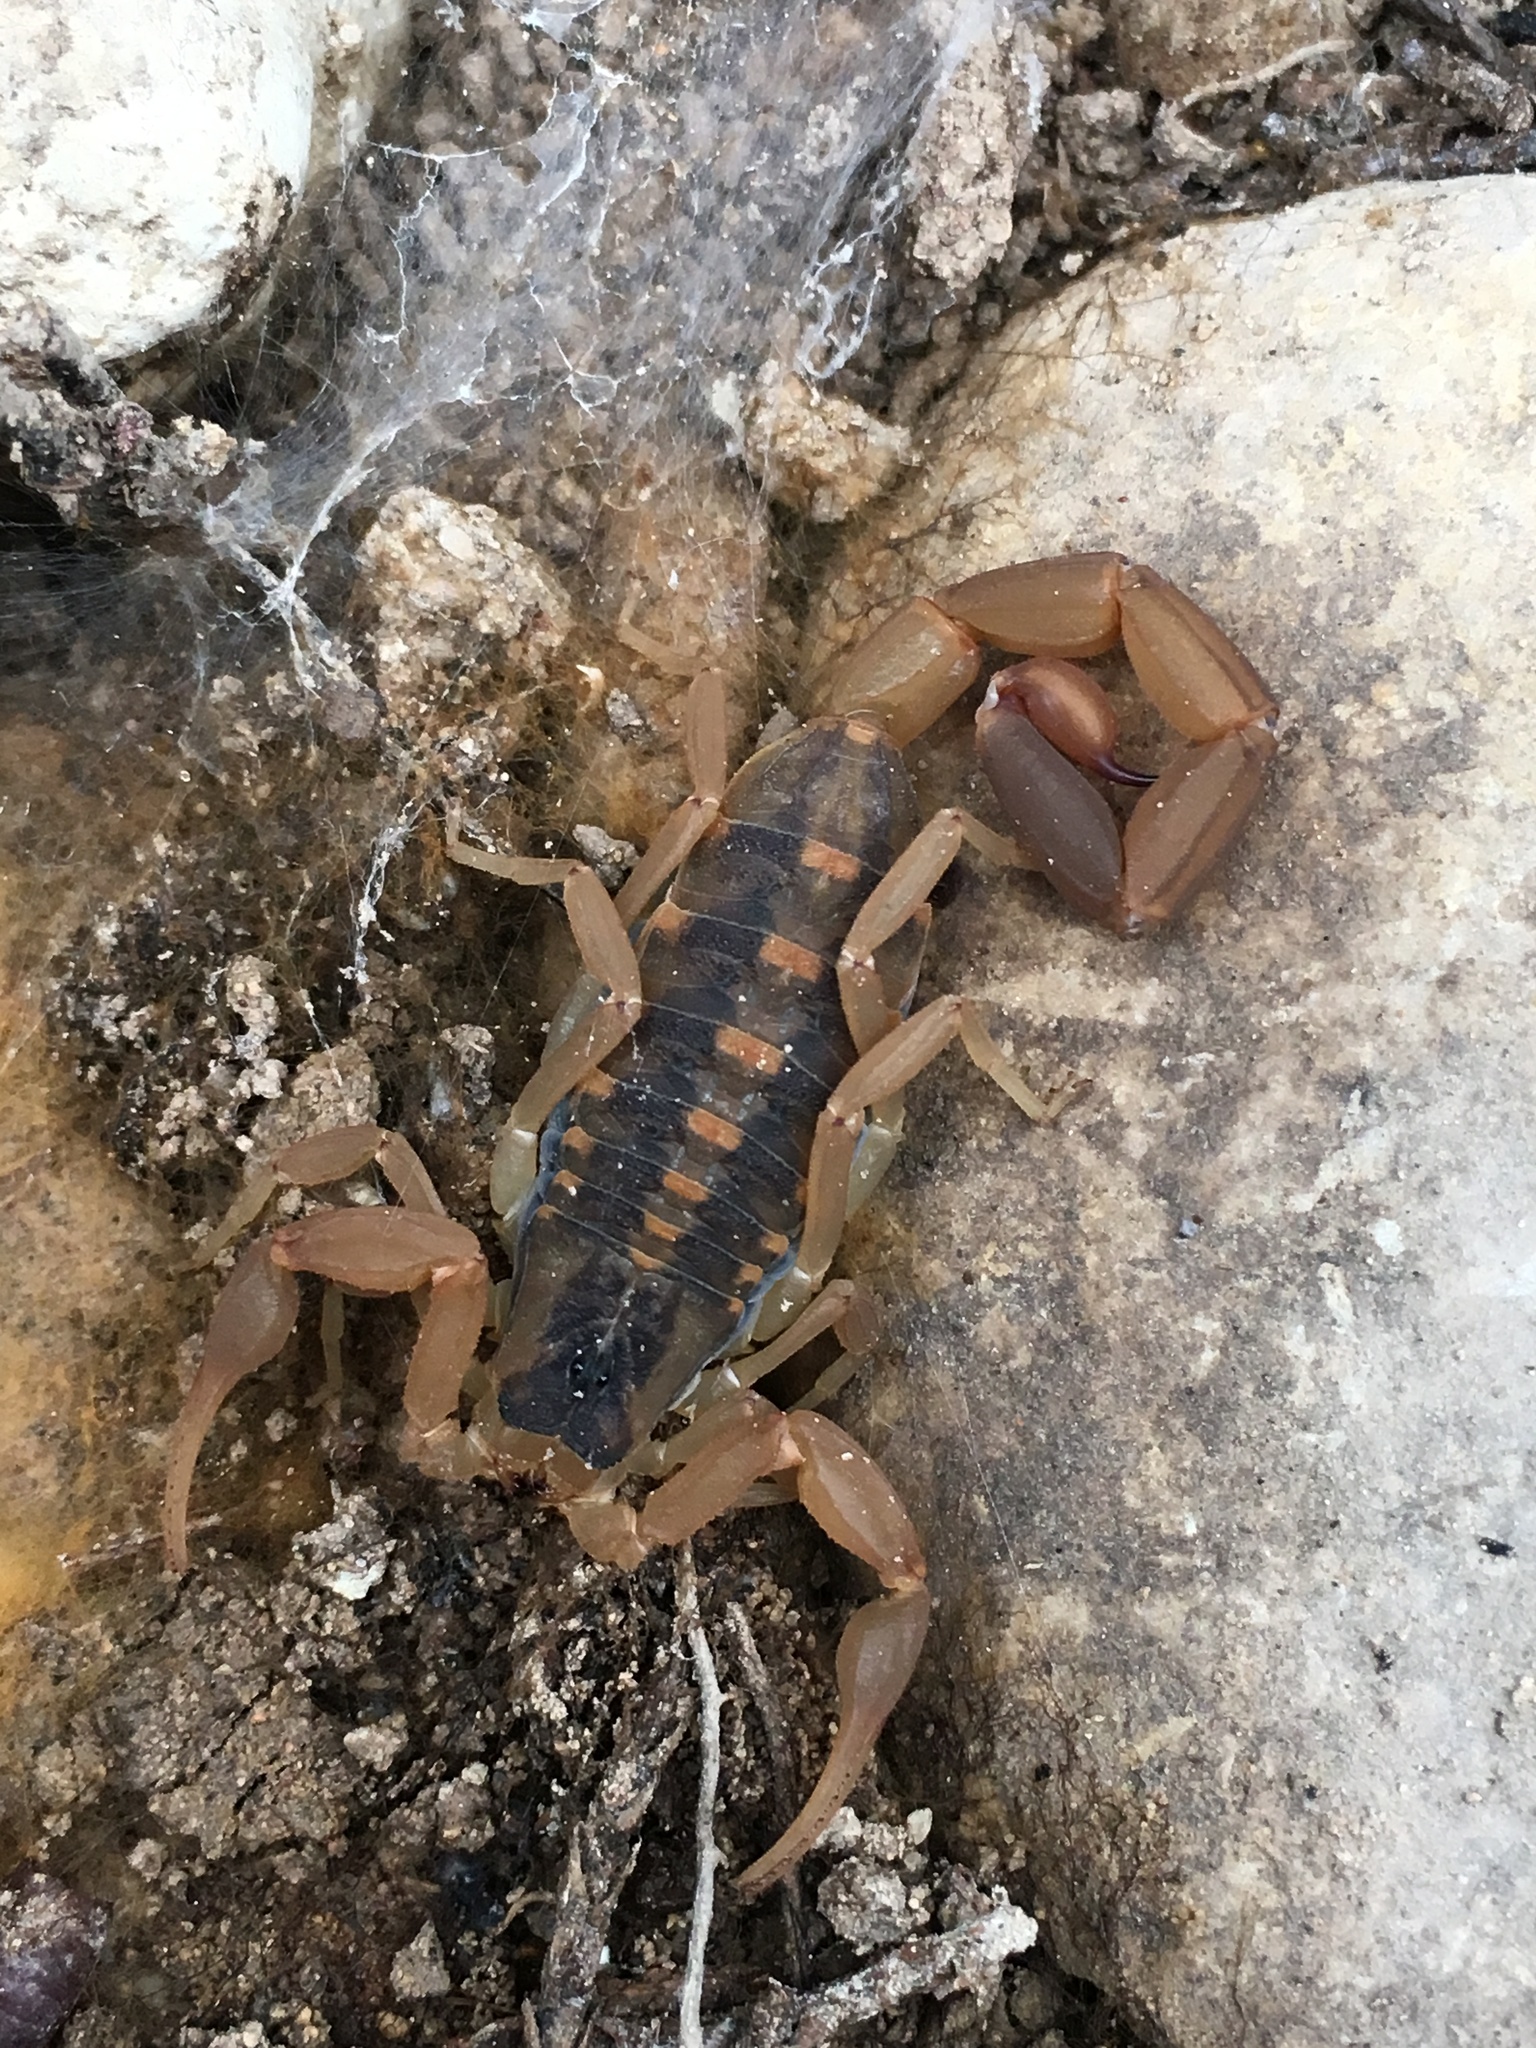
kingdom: Animalia
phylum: Arthropoda
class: Arachnida
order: Scorpiones
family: Buthidae
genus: Centruroides
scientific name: Centruroides vittatus
